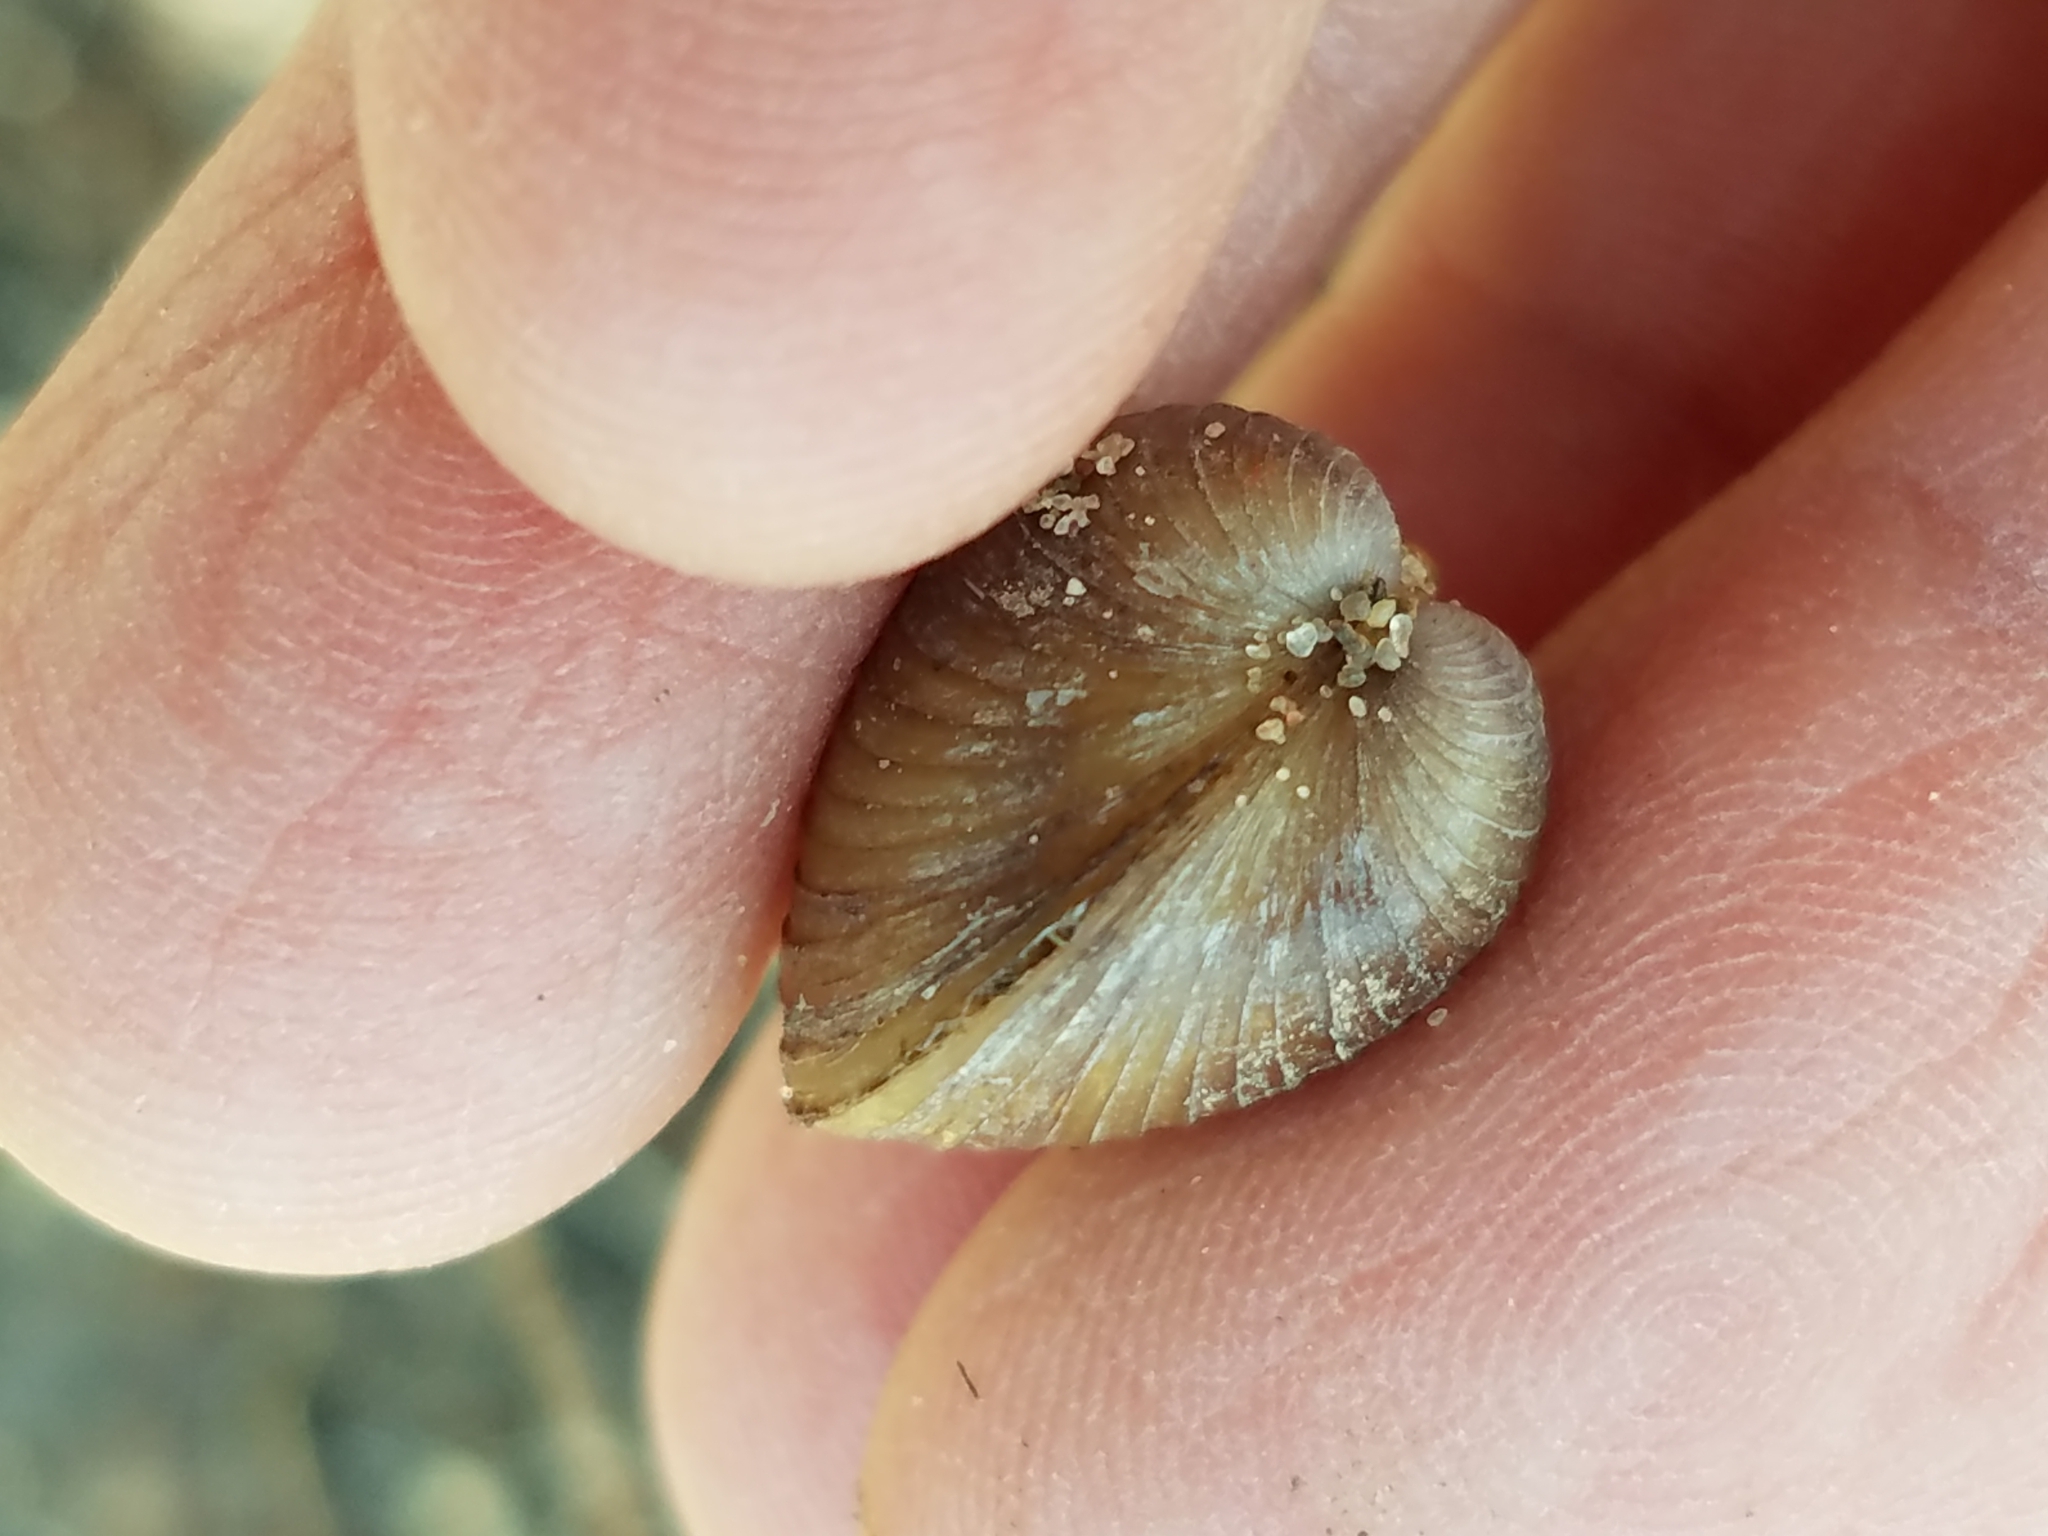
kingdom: Animalia
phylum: Mollusca
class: Bivalvia
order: Venerida
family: Cyrenidae
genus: Corbicula
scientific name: Corbicula fluminea
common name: Asian clam
